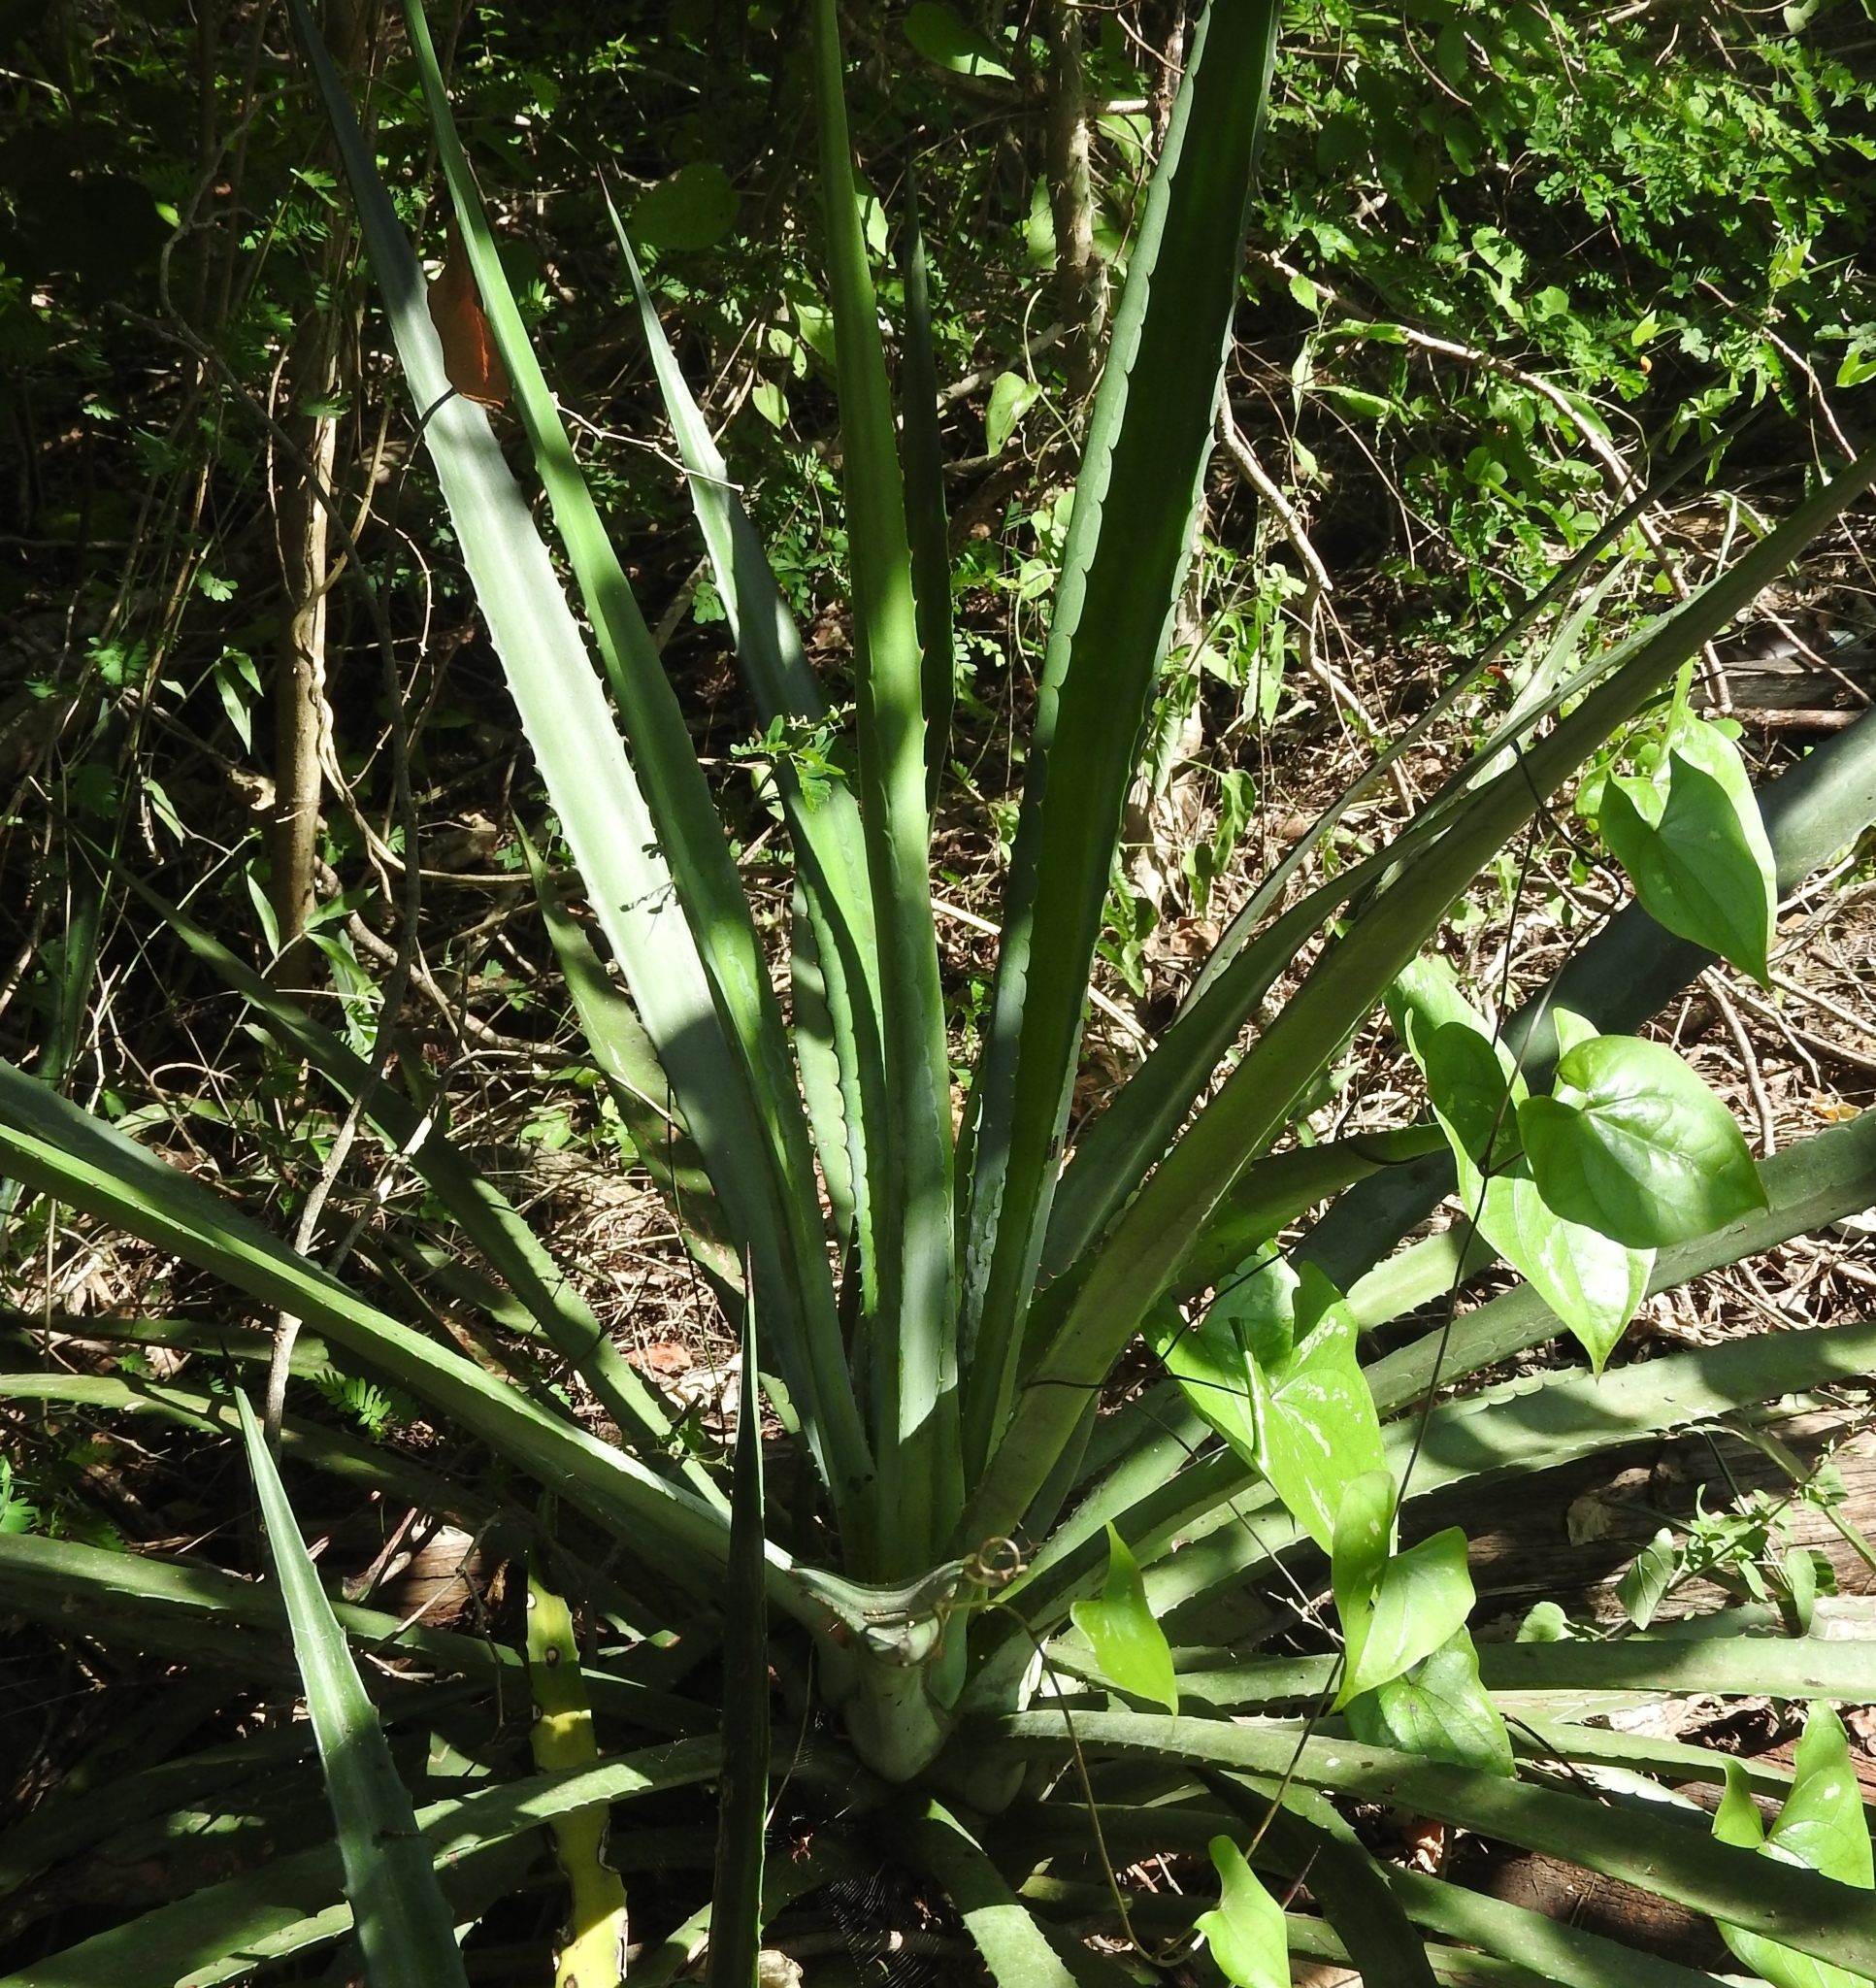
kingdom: Plantae
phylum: Tracheophyta
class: Liliopsida
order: Asparagales
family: Asparagaceae
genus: Agave
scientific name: Agave vivipara
